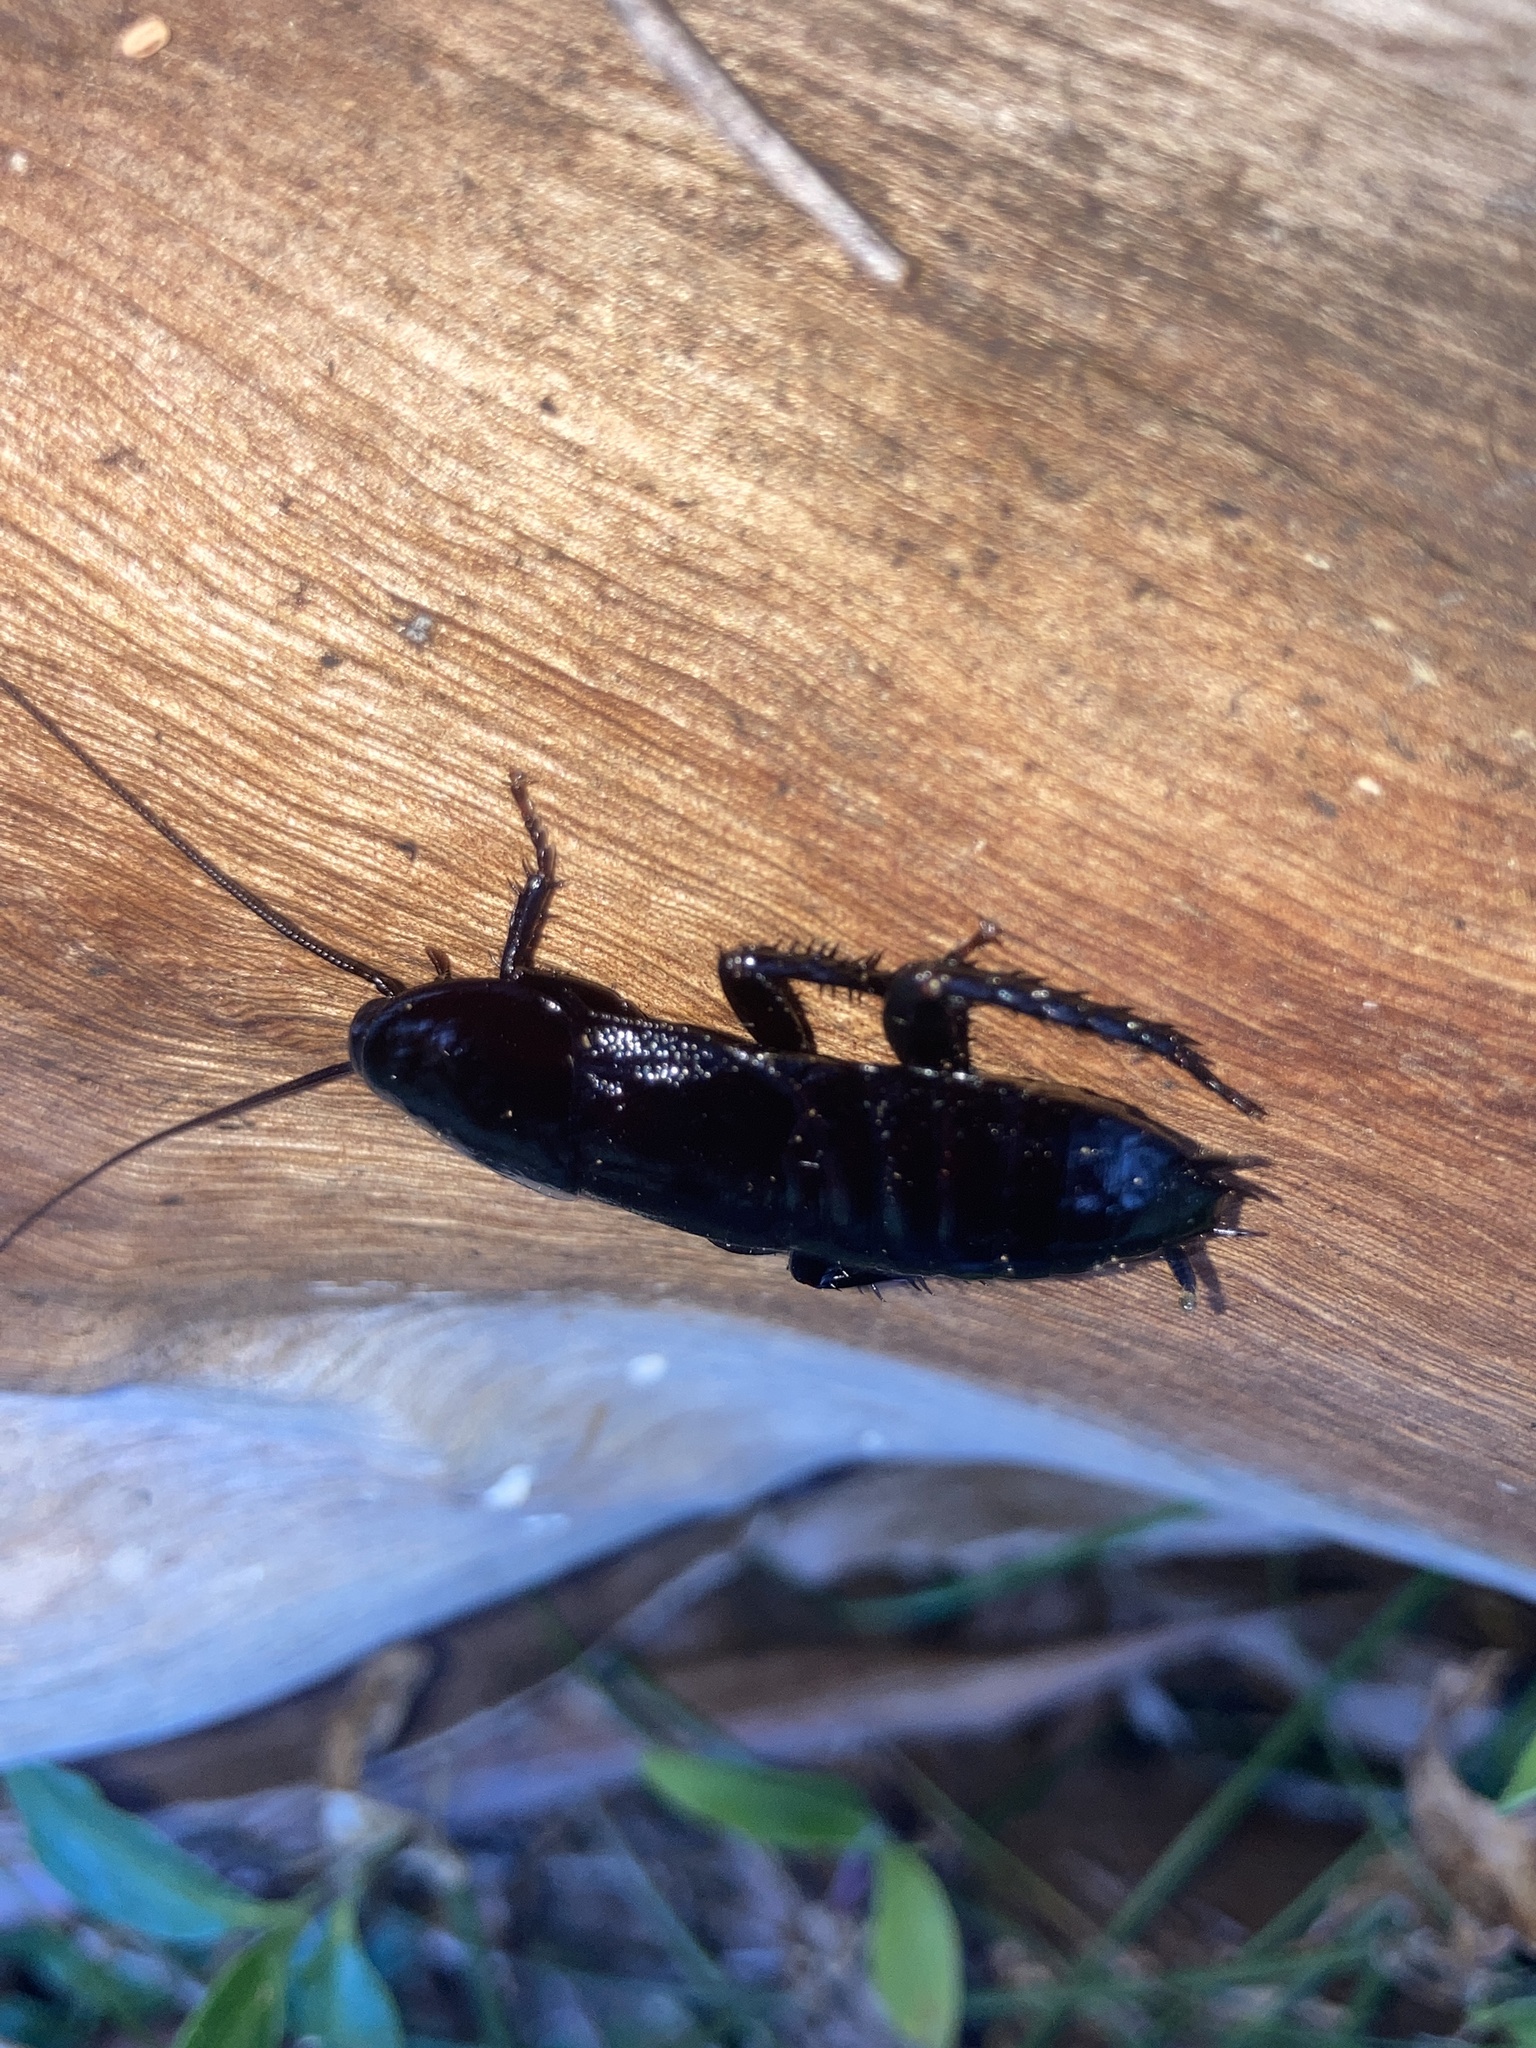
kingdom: Animalia
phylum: Arthropoda
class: Insecta
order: Blattodea
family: Blattidae
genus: Scabina
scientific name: Scabina antipoda
